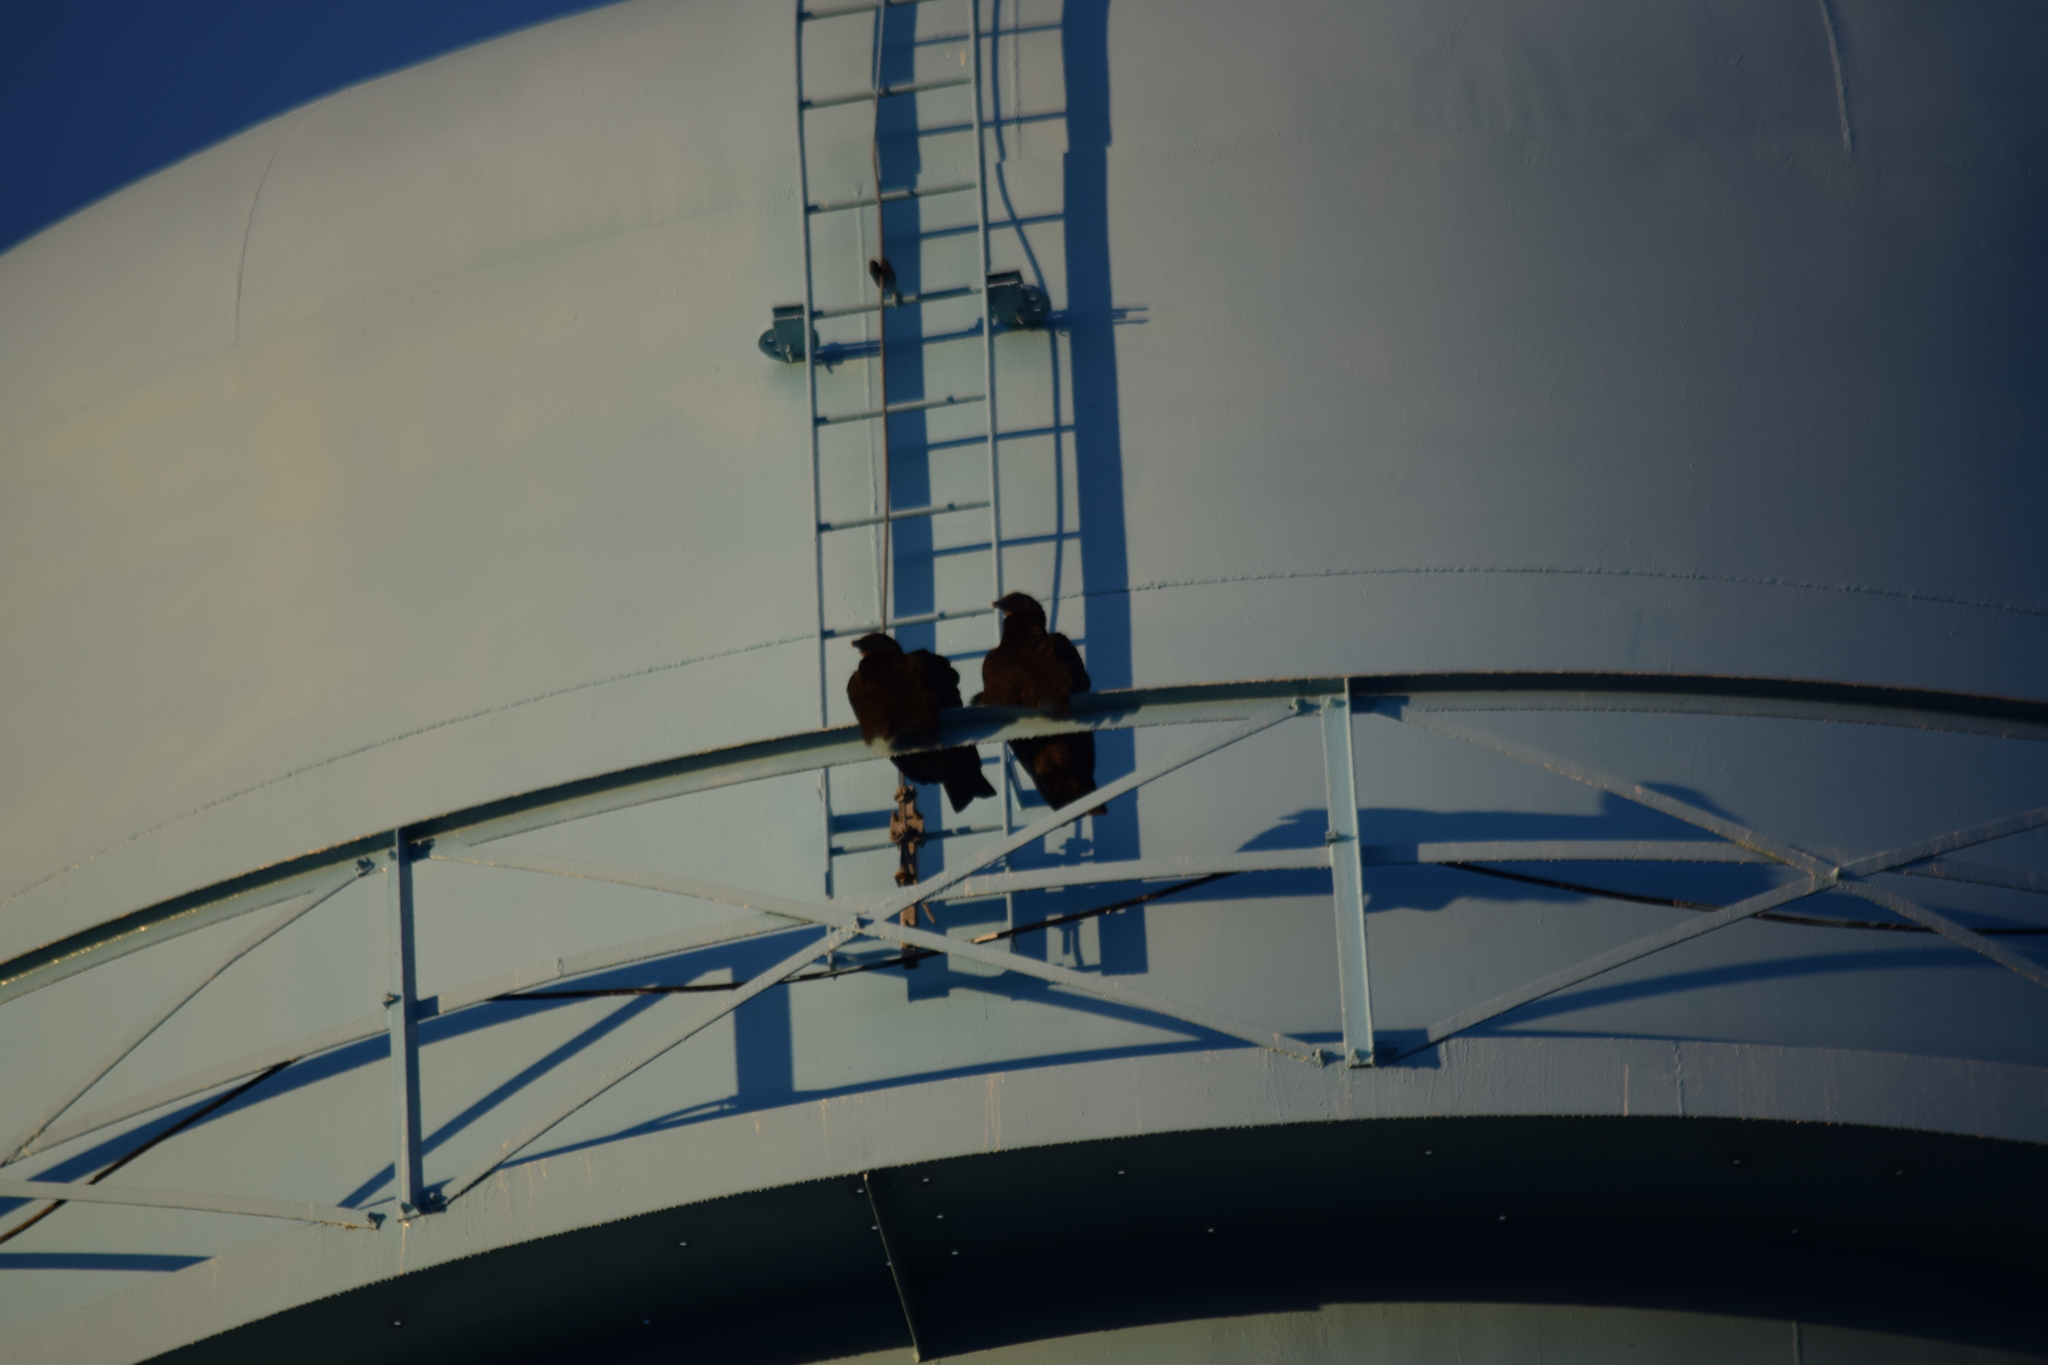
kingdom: Animalia
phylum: Chordata
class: Aves
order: Accipitriformes
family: Cathartidae
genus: Coragyps
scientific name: Coragyps atratus
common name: Black vulture
